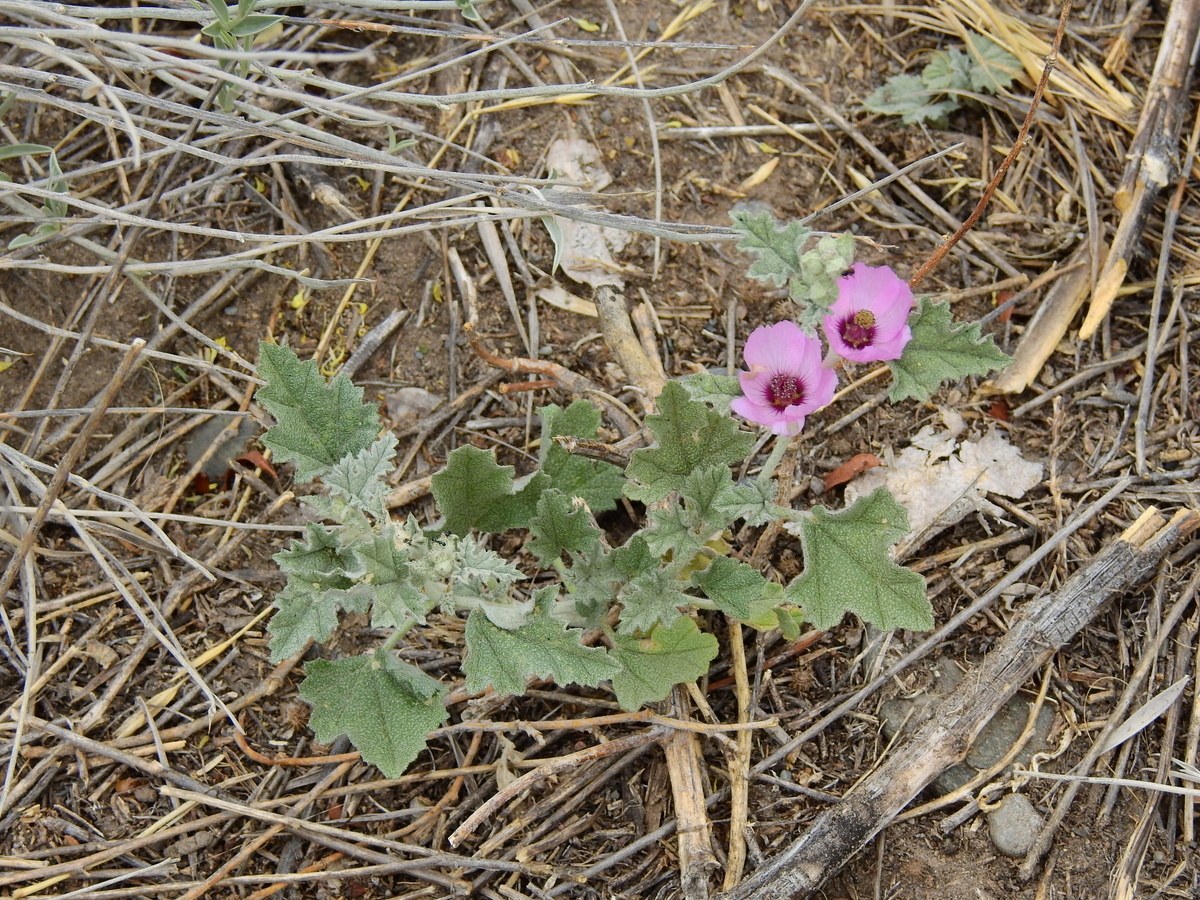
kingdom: Plantae
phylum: Tracheophyta
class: Magnoliopsida
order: Malvales
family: Malvaceae
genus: Sphaeralcea
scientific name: Sphaeralcea mendocina
